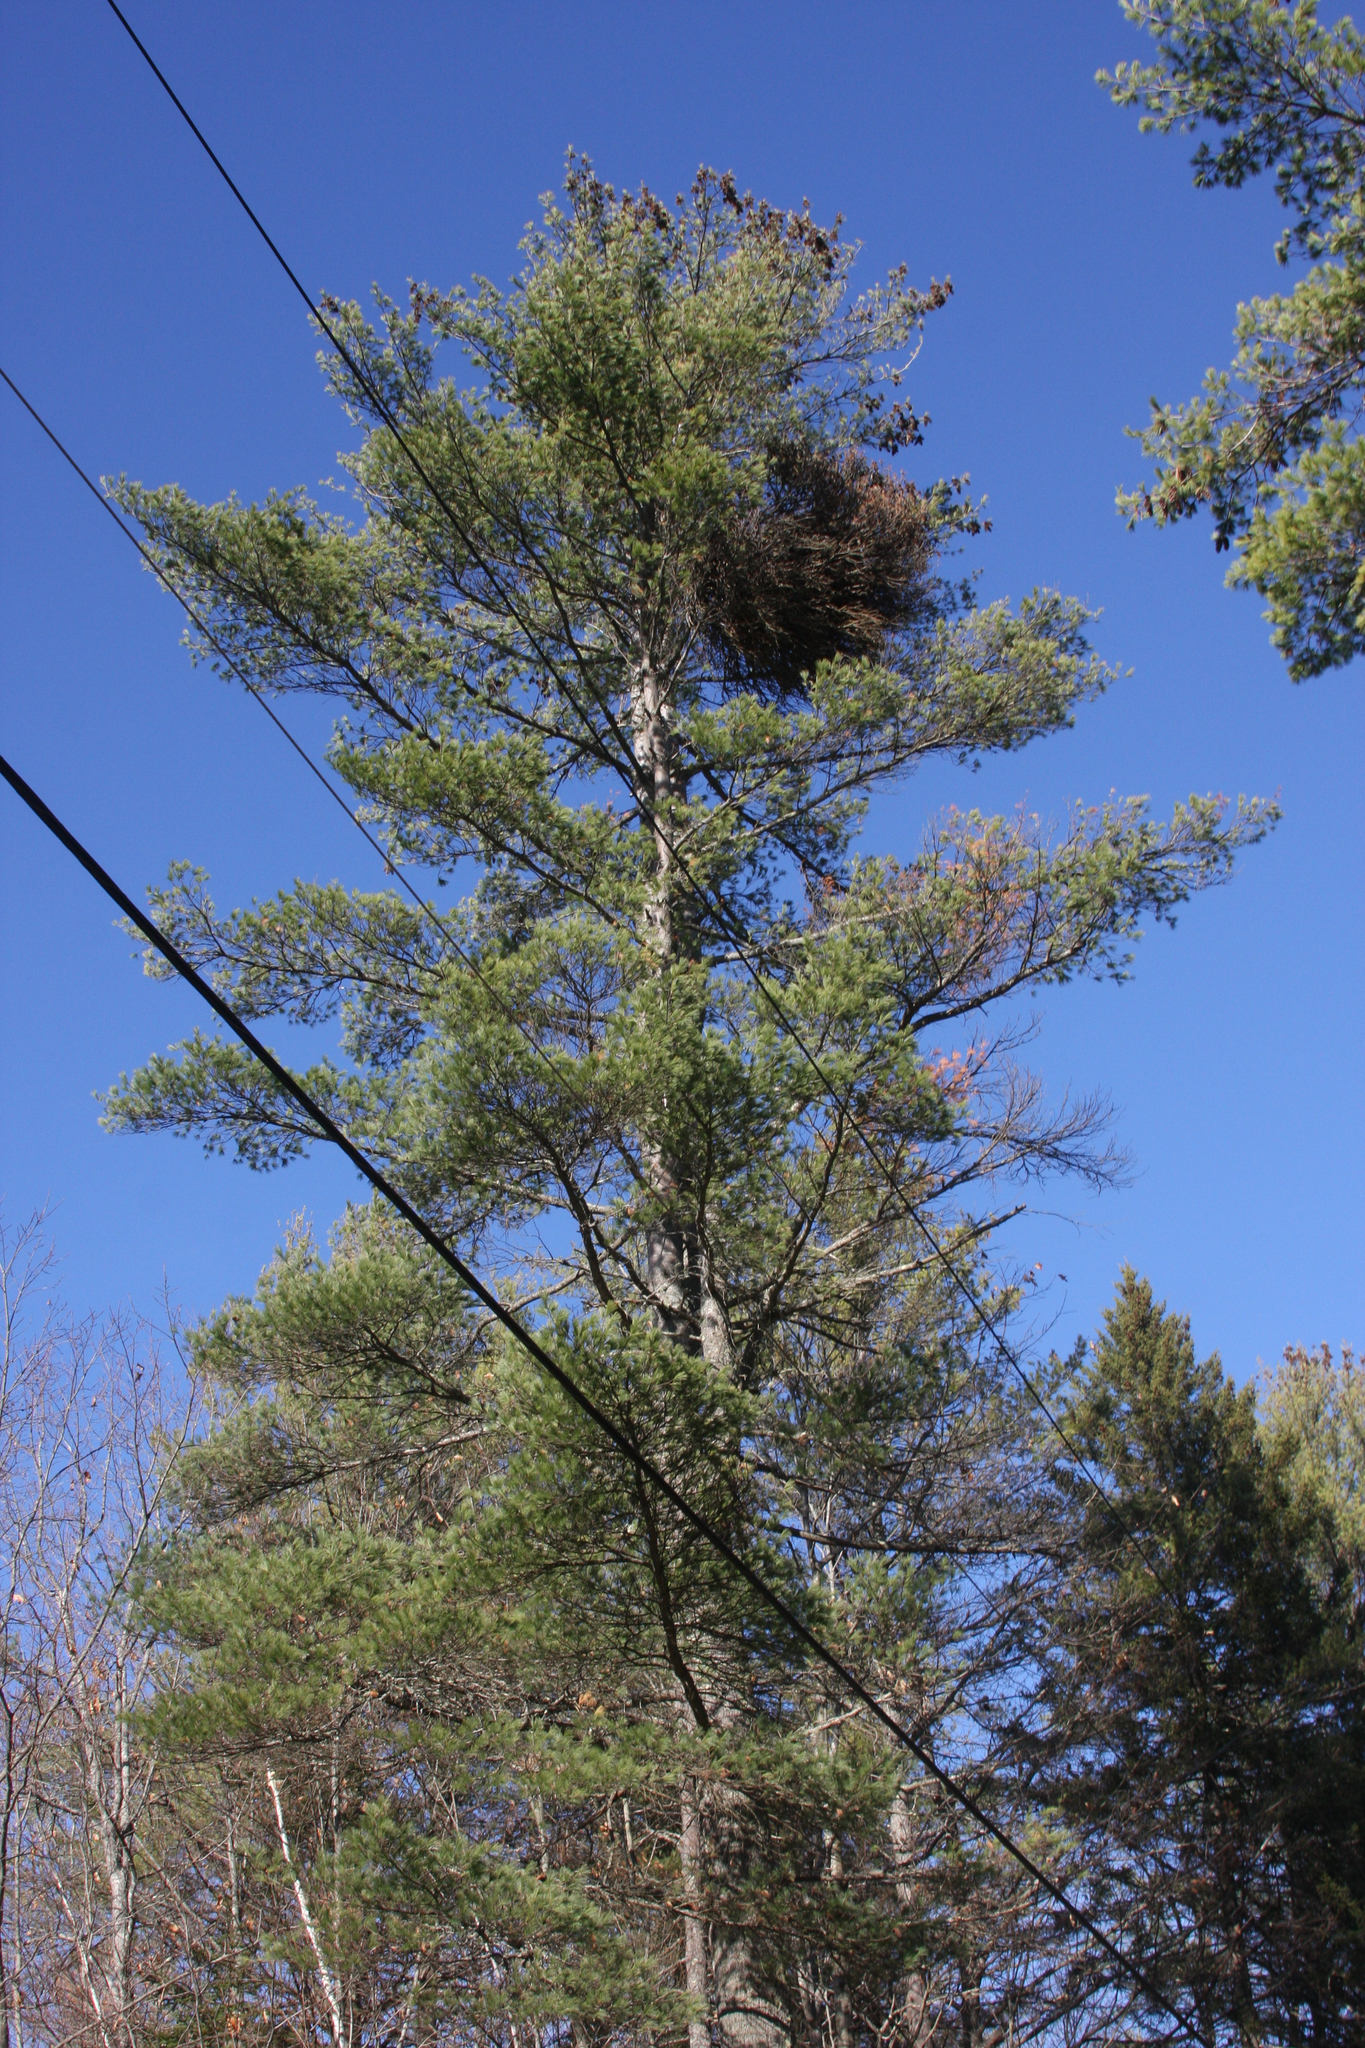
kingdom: Plantae
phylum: Tracheophyta
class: Pinopsida
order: Pinales
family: Pinaceae
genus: Pinus
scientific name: Pinus strobus
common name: Weymouth pine
